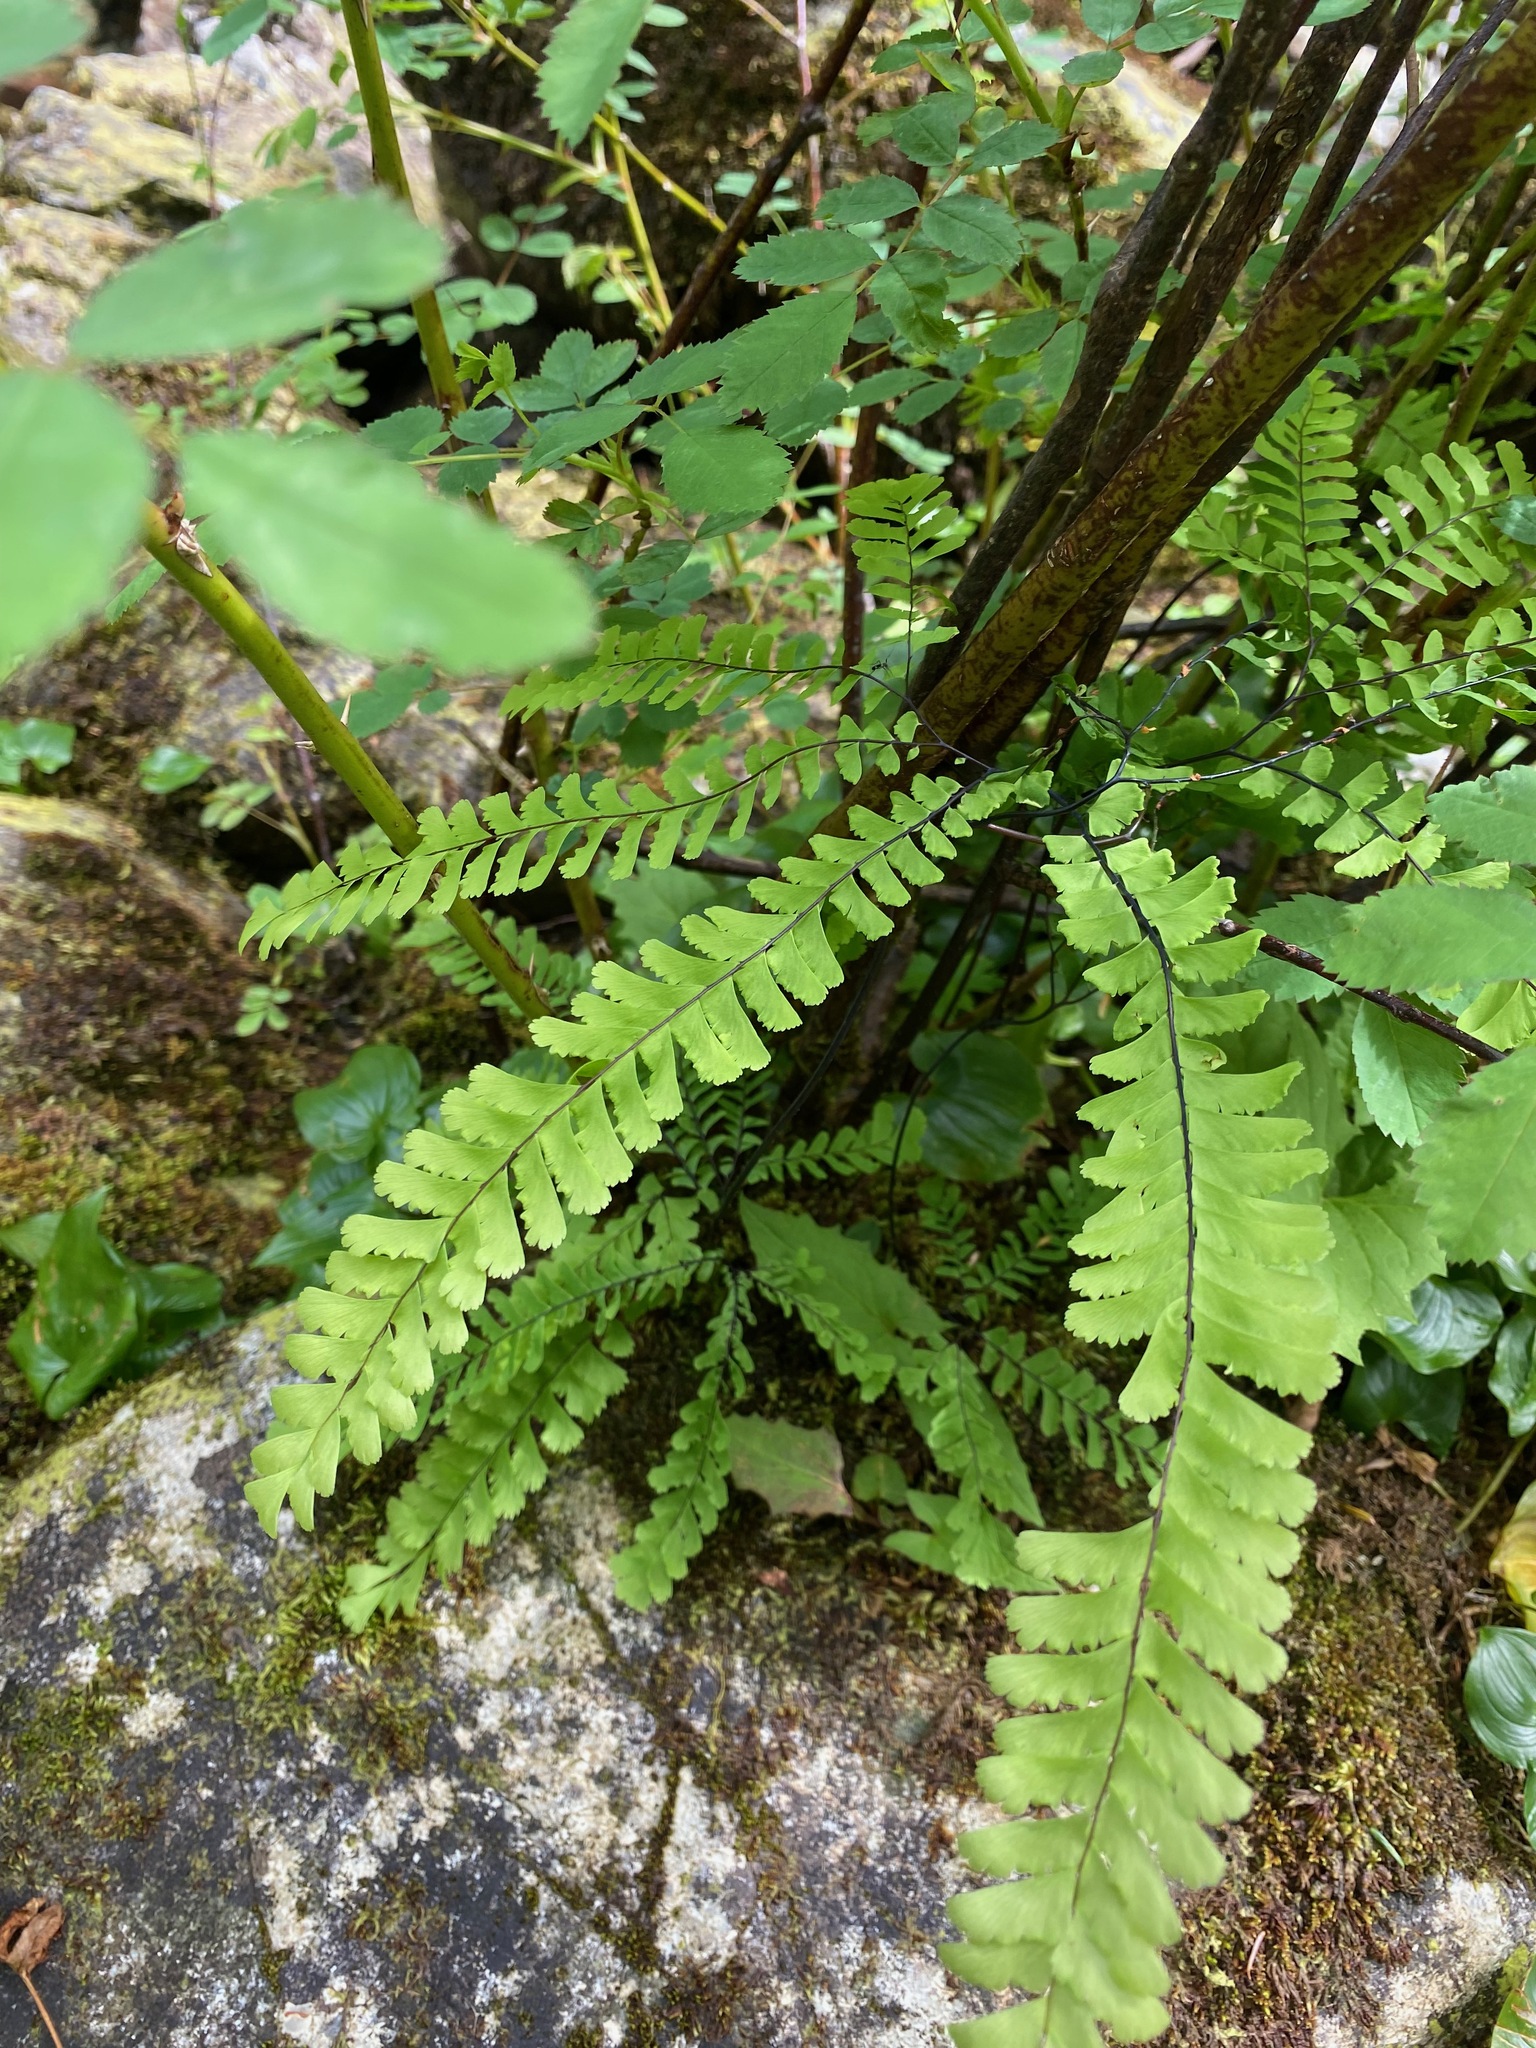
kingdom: Plantae
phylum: Tracheophyta
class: Polypodiopsida
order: Polypodiales
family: Pteridaceae
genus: Adiantum
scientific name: Adiantum aleuticum
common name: Aleutian maidenhair fern
